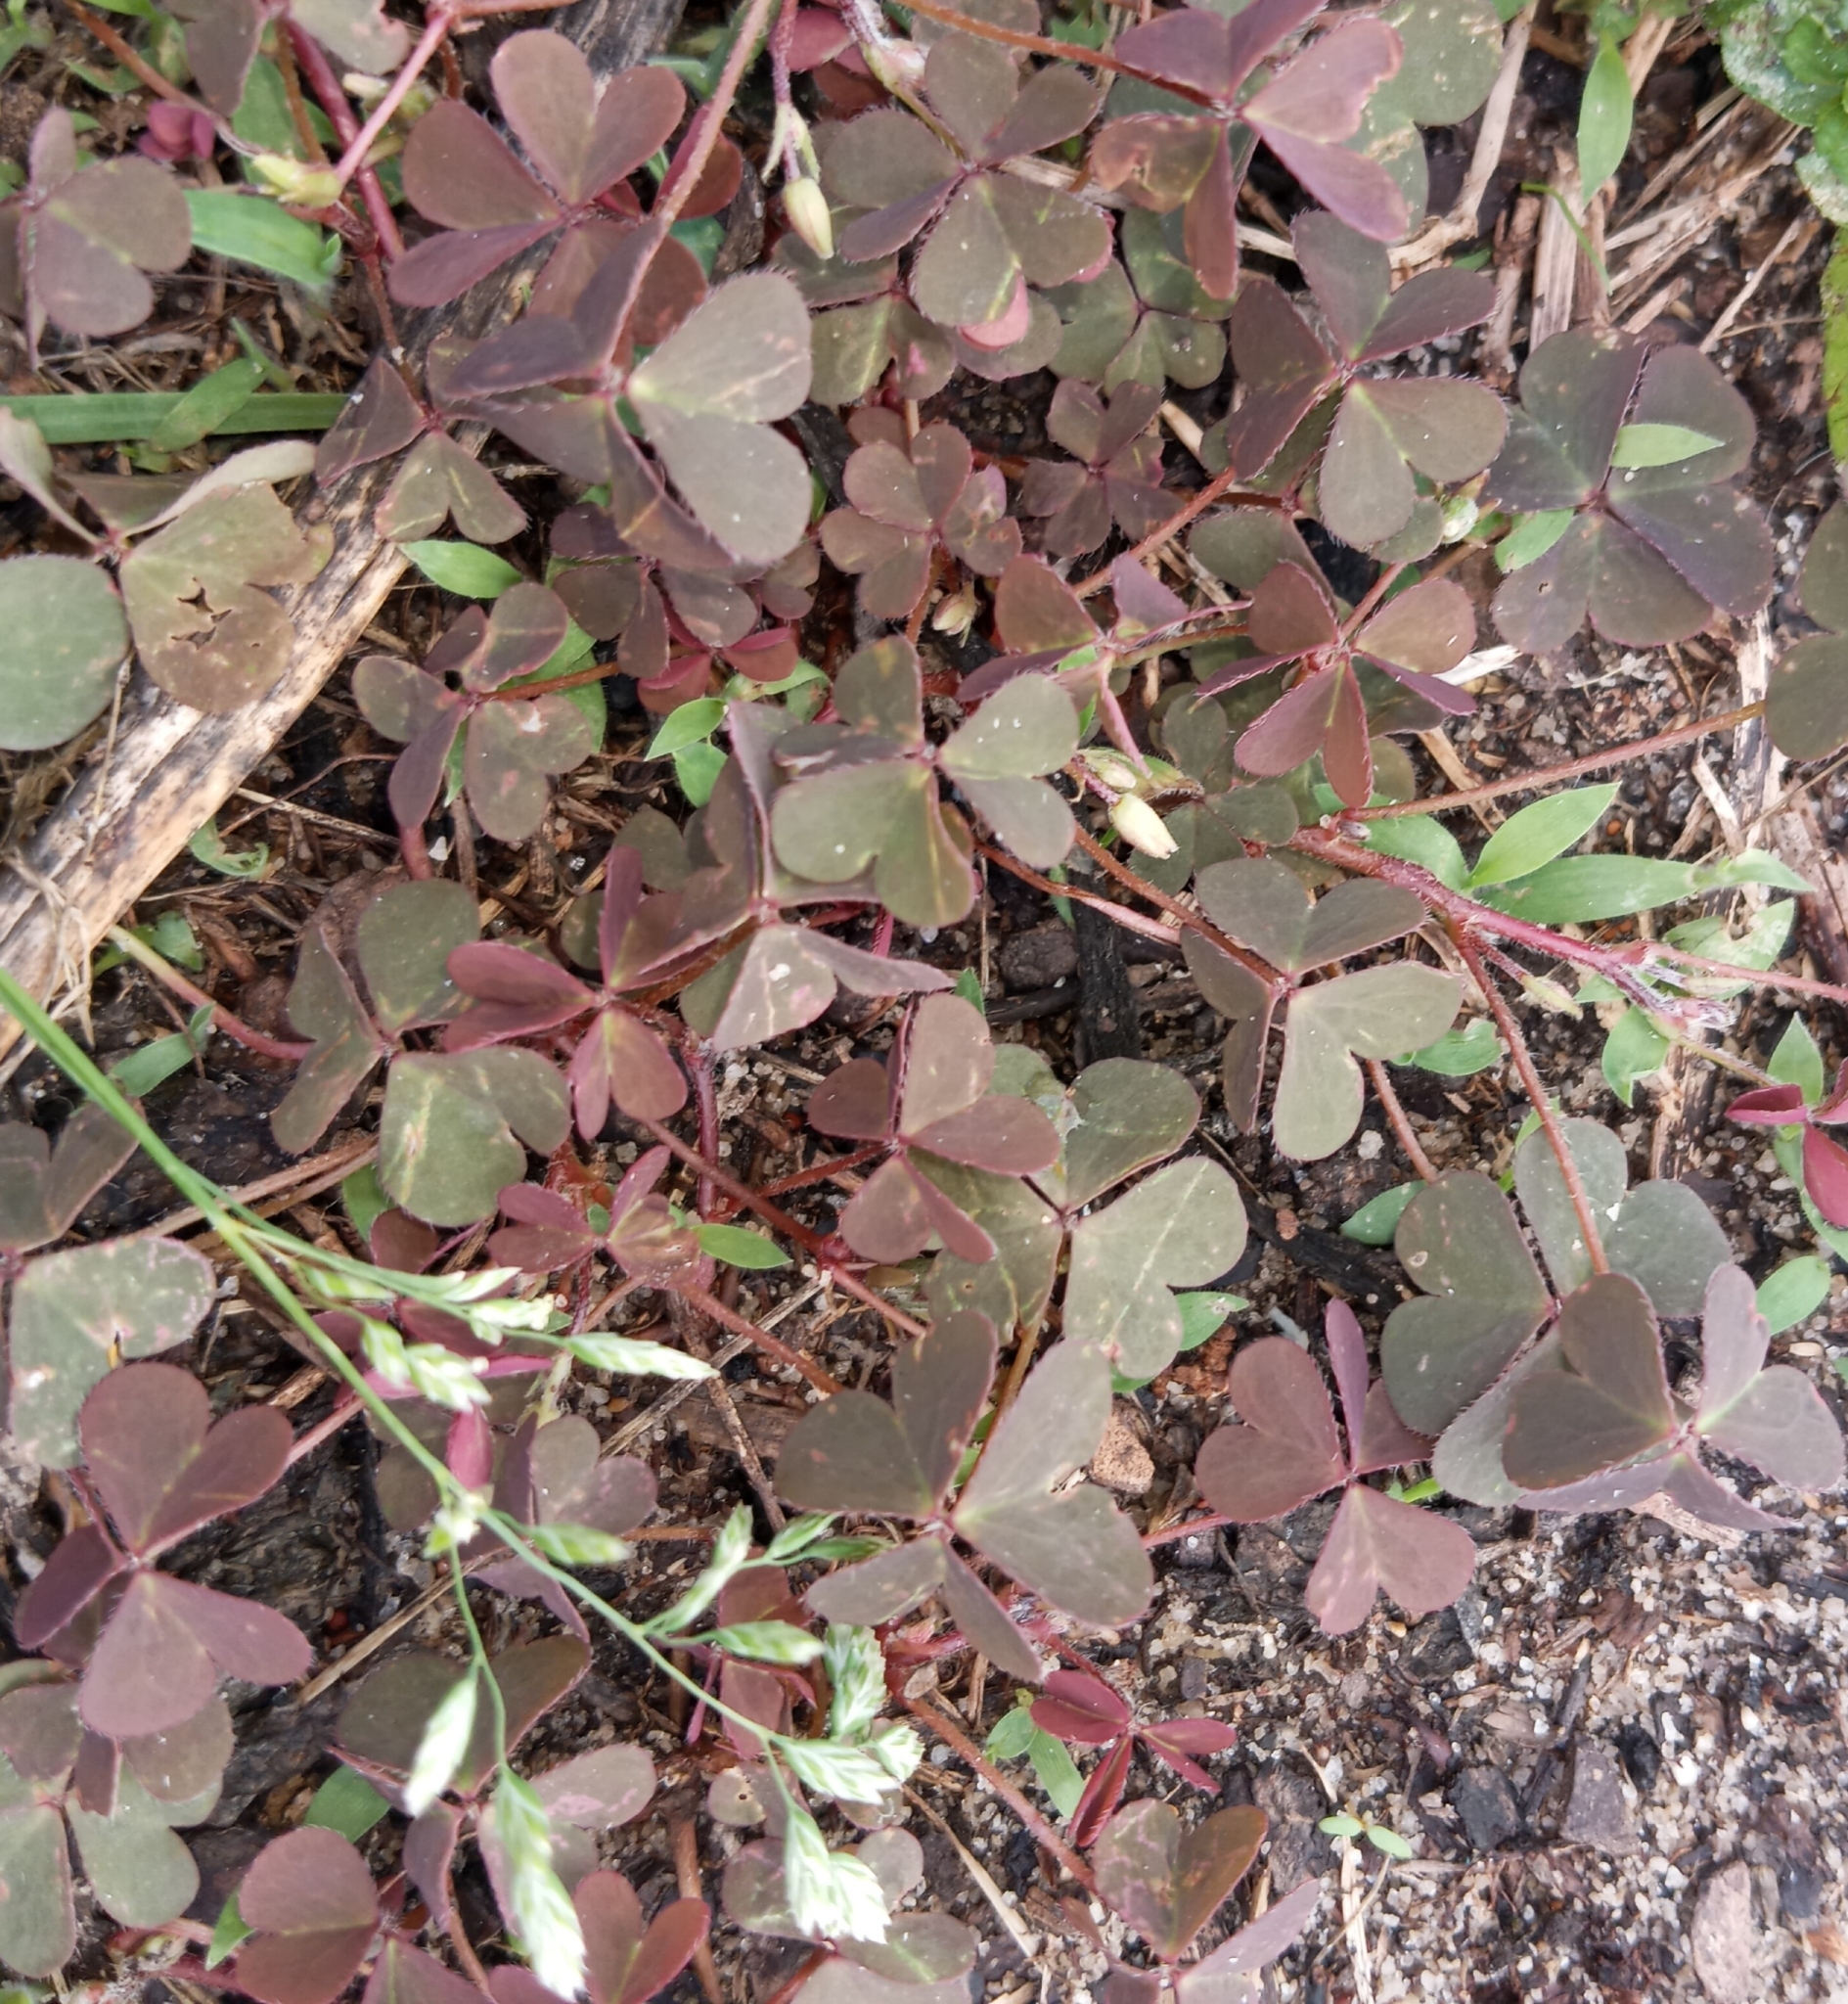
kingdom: Plantae
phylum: Tracheophyta
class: Magnoliopsida
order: Oxalidales
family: Oxalidaceae
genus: Oxalis
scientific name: Oxalis corniculata
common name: Procumbent yellow-sorrel
